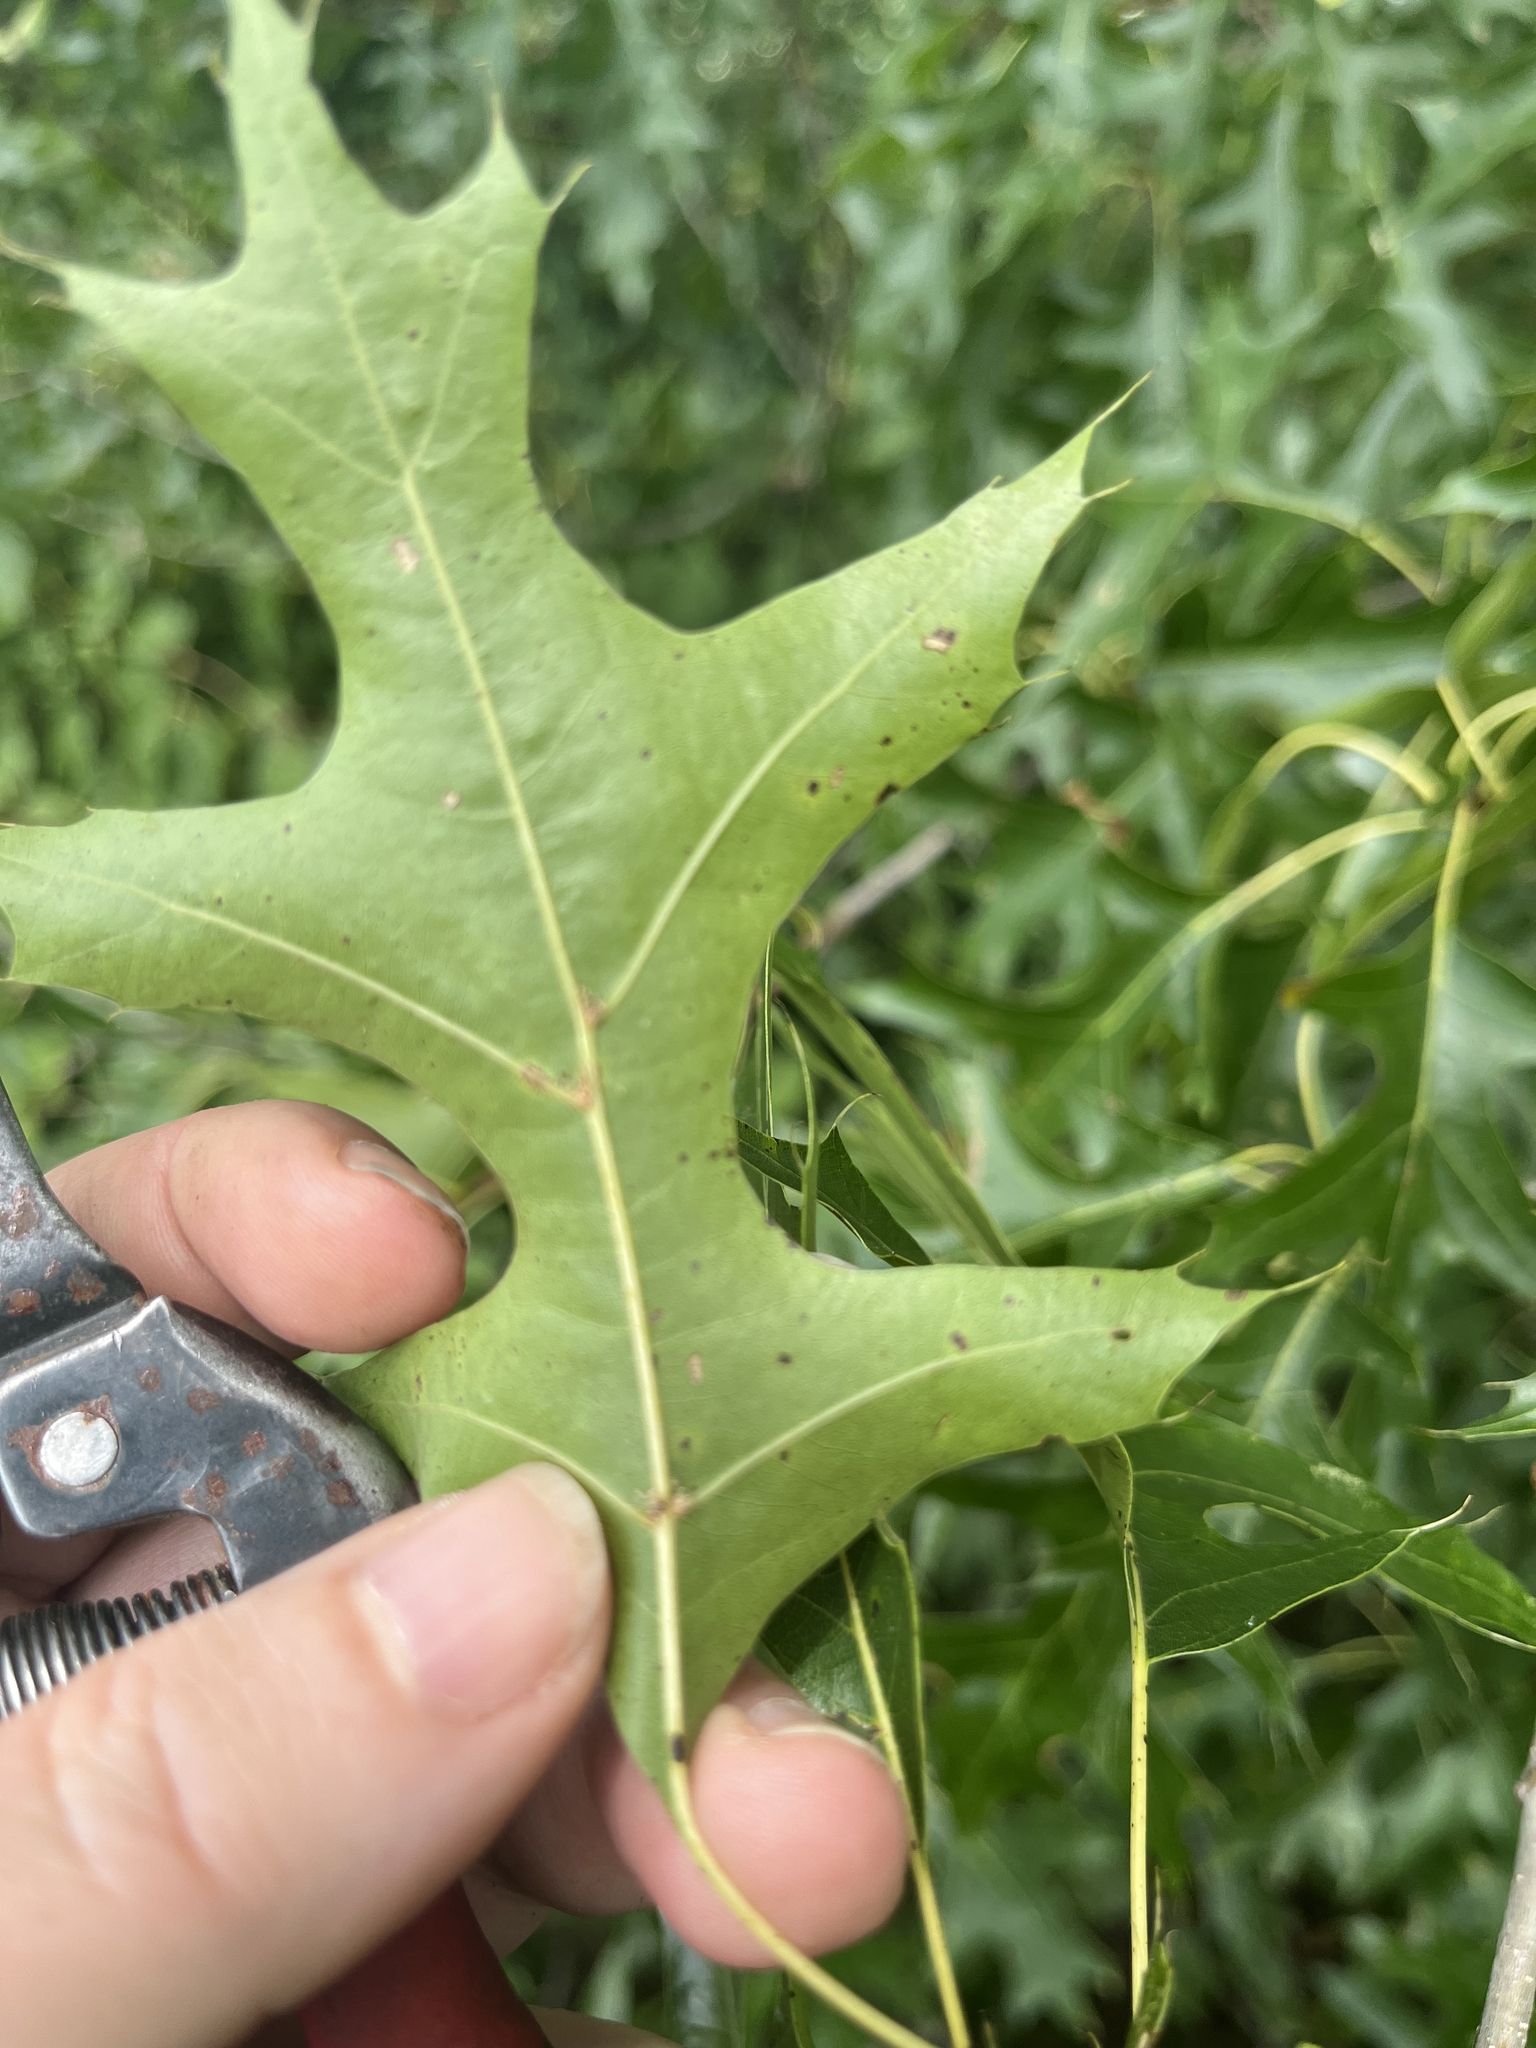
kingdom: Plantae
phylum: Tracheophyta
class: Magnoliopsida
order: Fagales
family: Fagaceae
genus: Quercus
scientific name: Quercus palustris
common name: Pin oak
